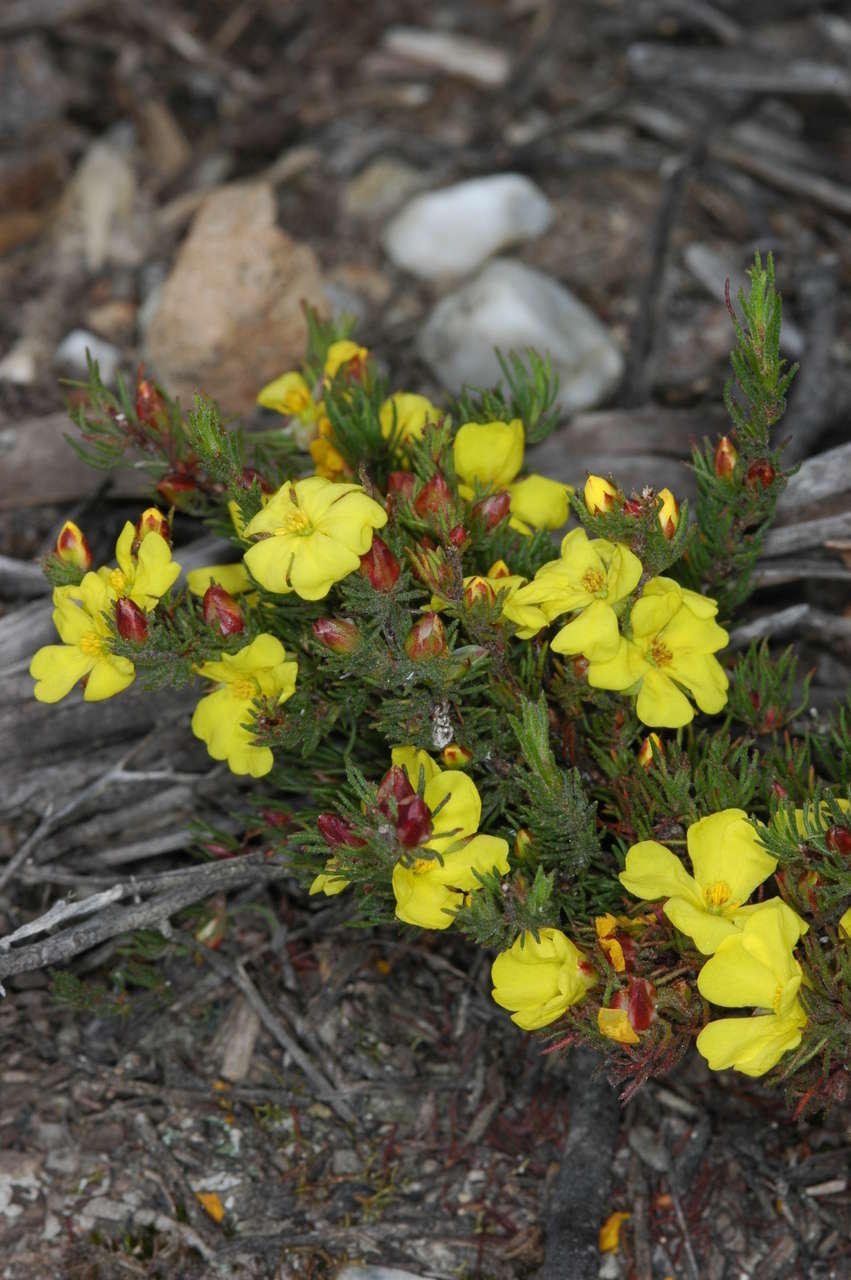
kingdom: Plantae
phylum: Tracheophyta
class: Magnoliopsida
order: Dilleniales
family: Dilleniaceae
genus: Hibbertia
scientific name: Hibbertia prostrata
